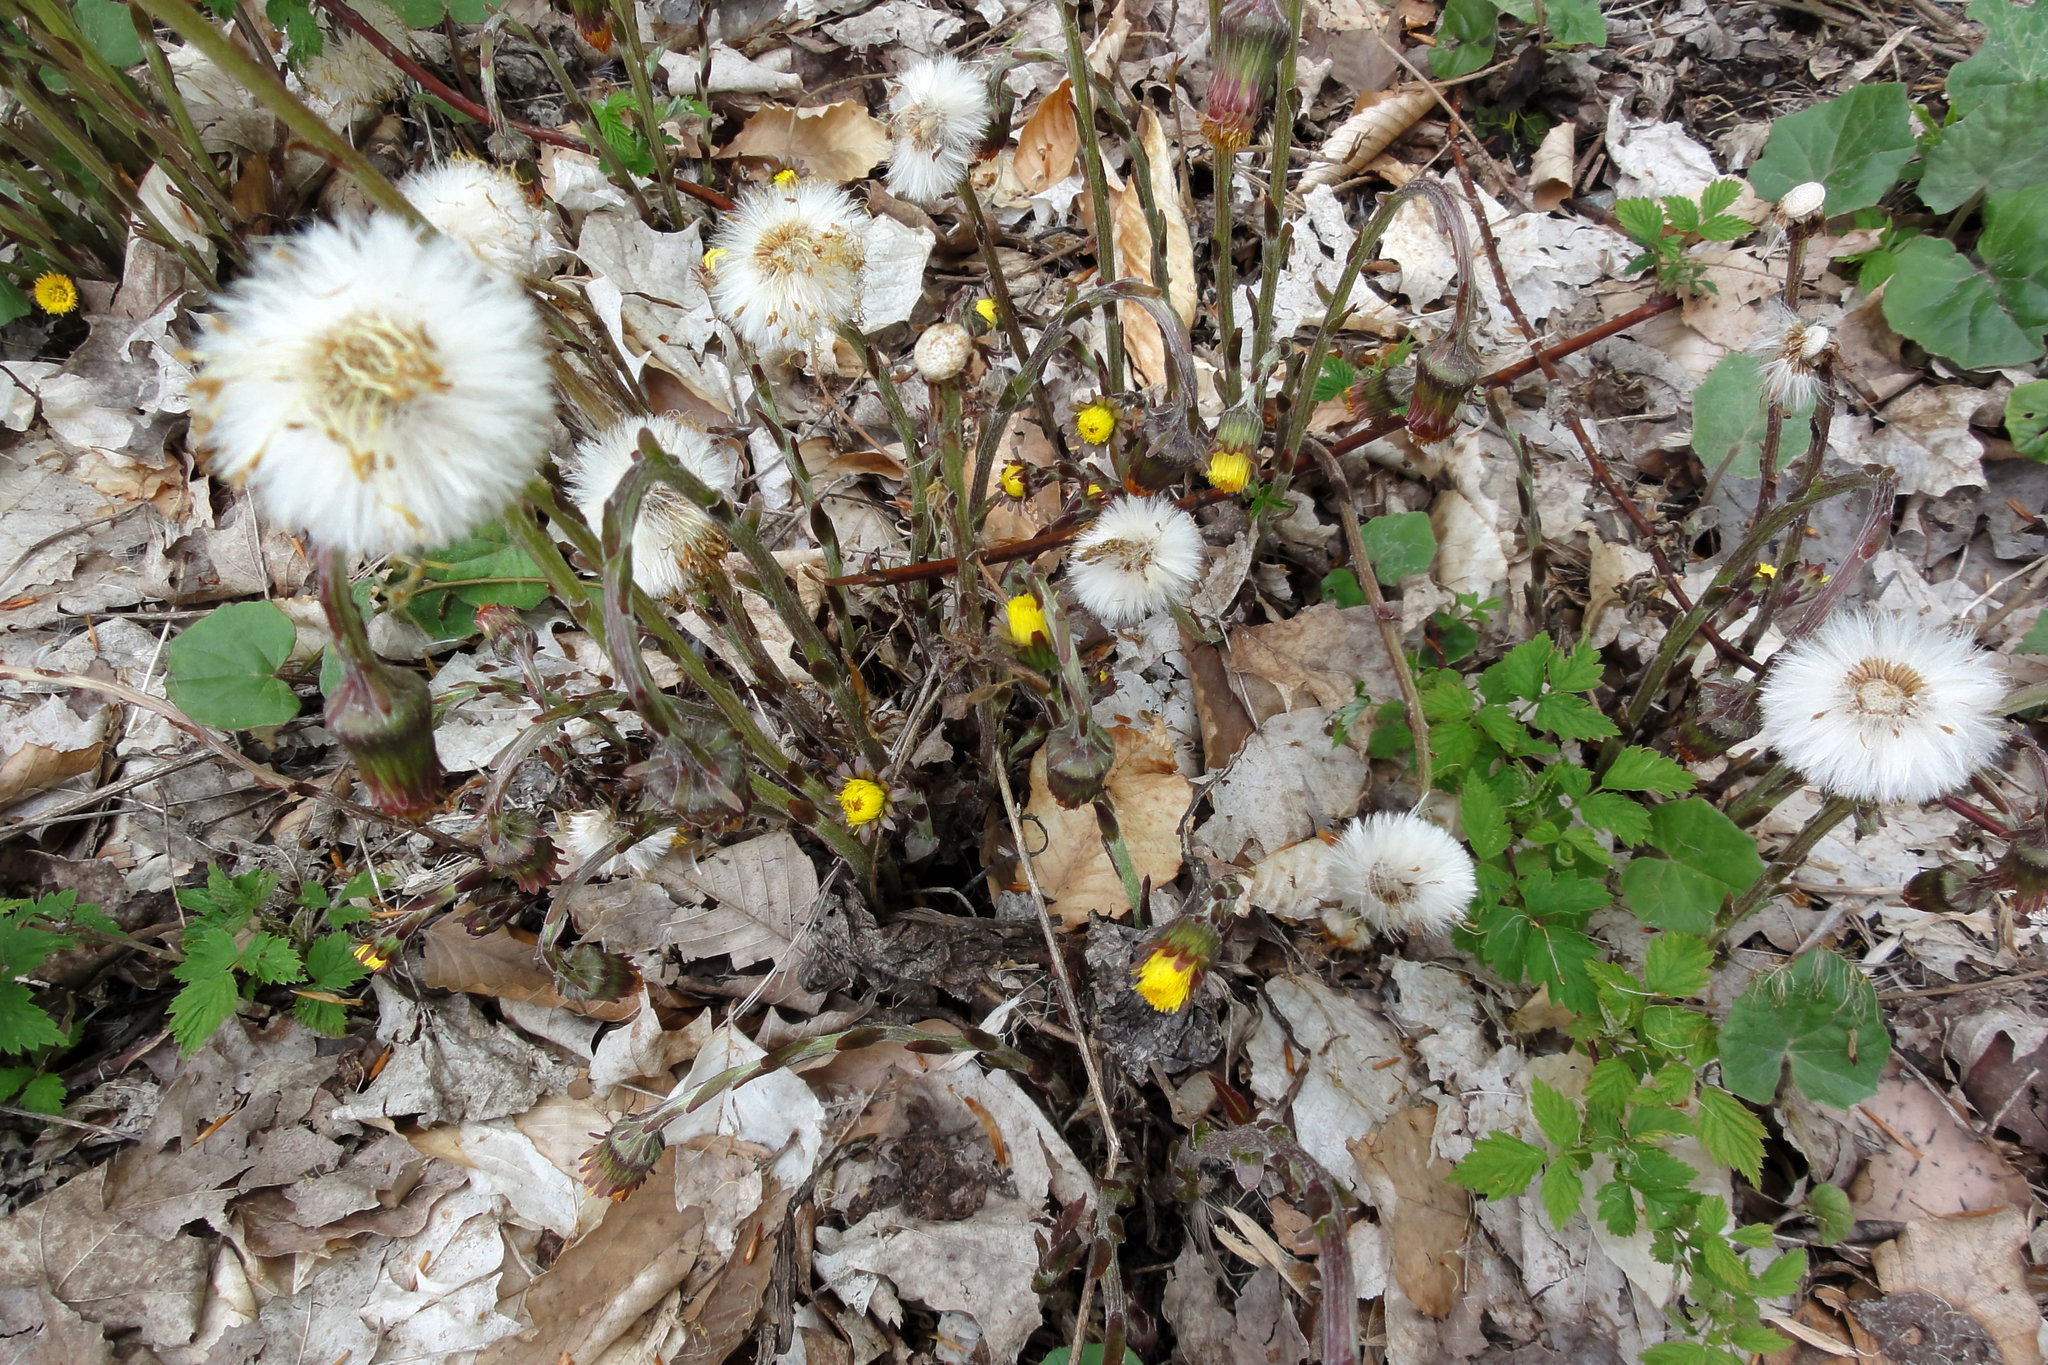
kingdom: Plantae
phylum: Tracheophyta
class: Magnoliopsida
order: Asterales
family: Asteraceae
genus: Tussilago
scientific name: Tussilago farfara
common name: Coltsfoot
